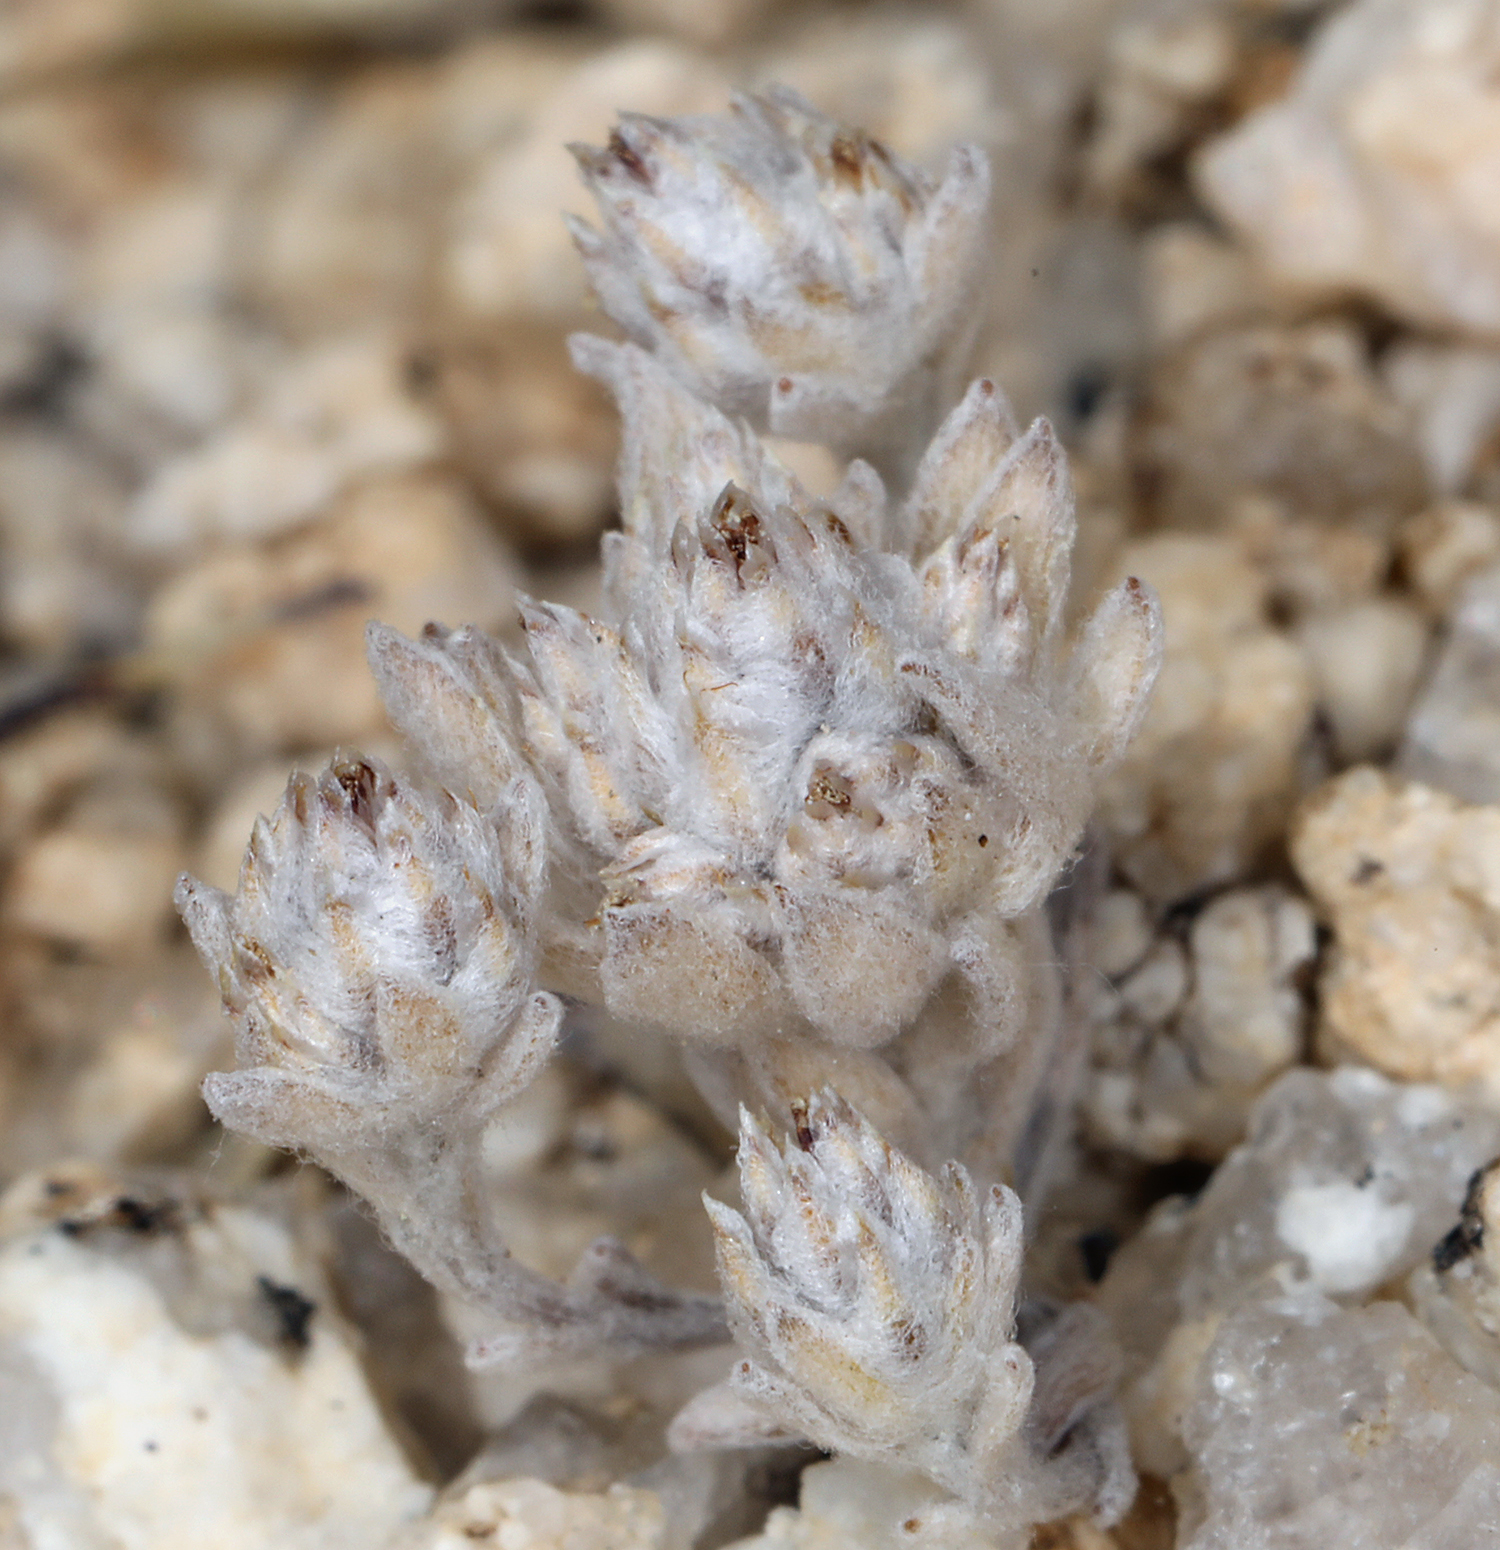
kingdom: Plantae
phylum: Tracheophyta
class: Magnoliopsida
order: Asterales
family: Asteraceae
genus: Stylocline
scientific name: Stylocline psilocarphoides
